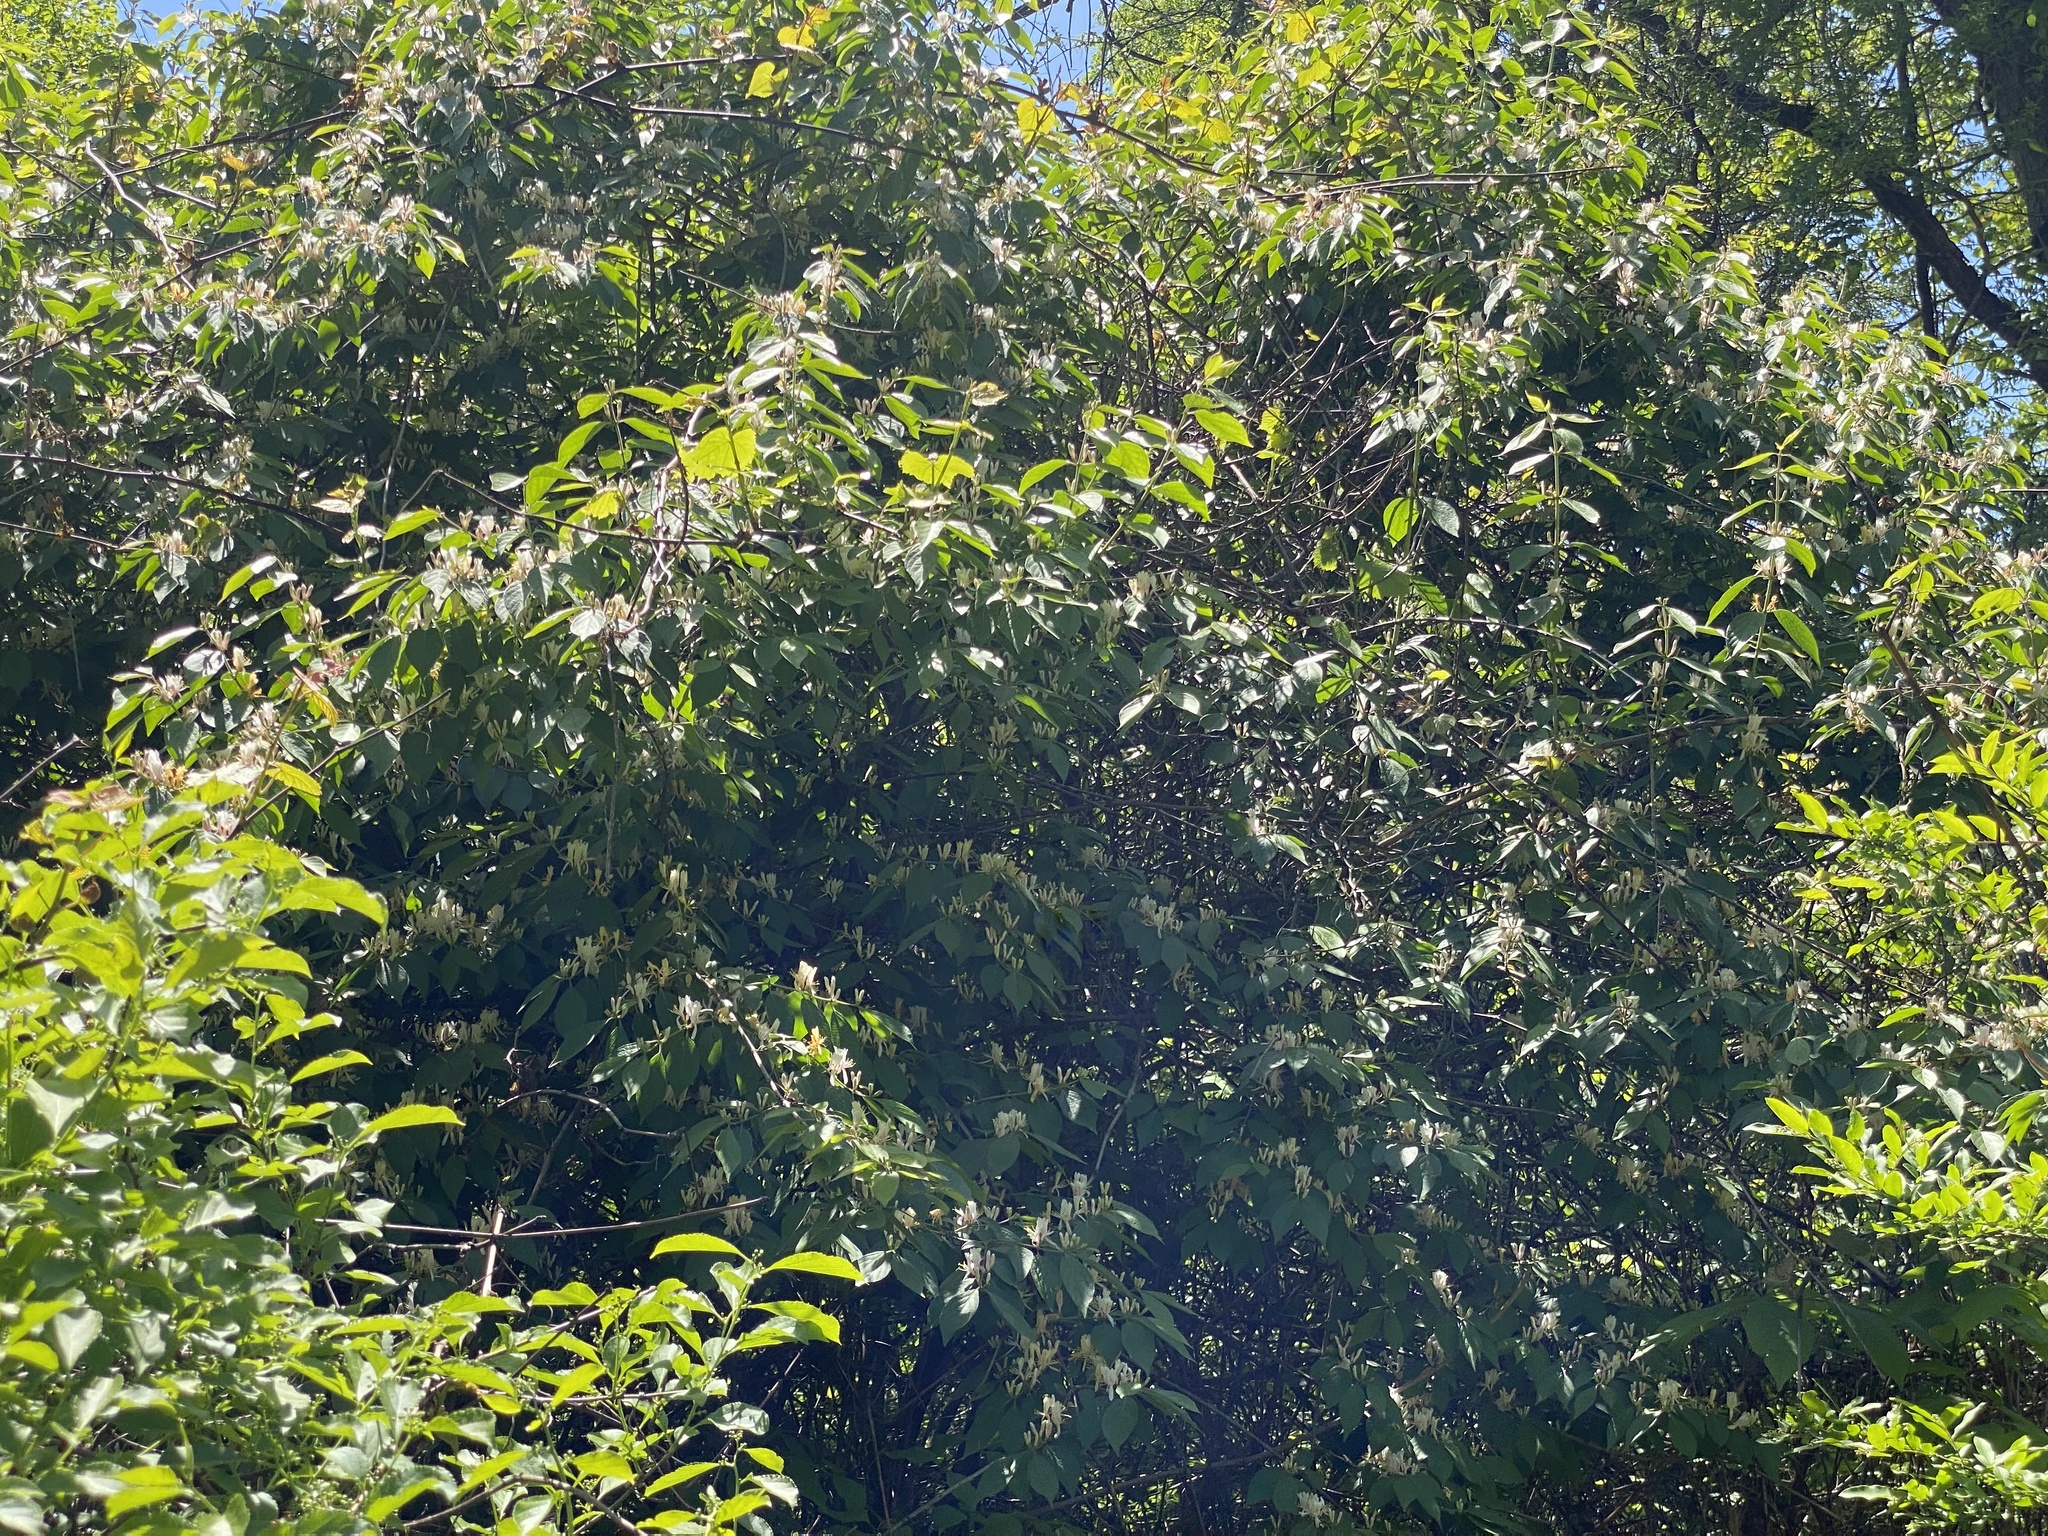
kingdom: Plantae
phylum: Tracheophyta
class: Magnoliopsida
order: Dipsacales
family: Caprifoliaceae
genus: Lonicera
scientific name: Lonicera maackii
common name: Amur honeysuckle
